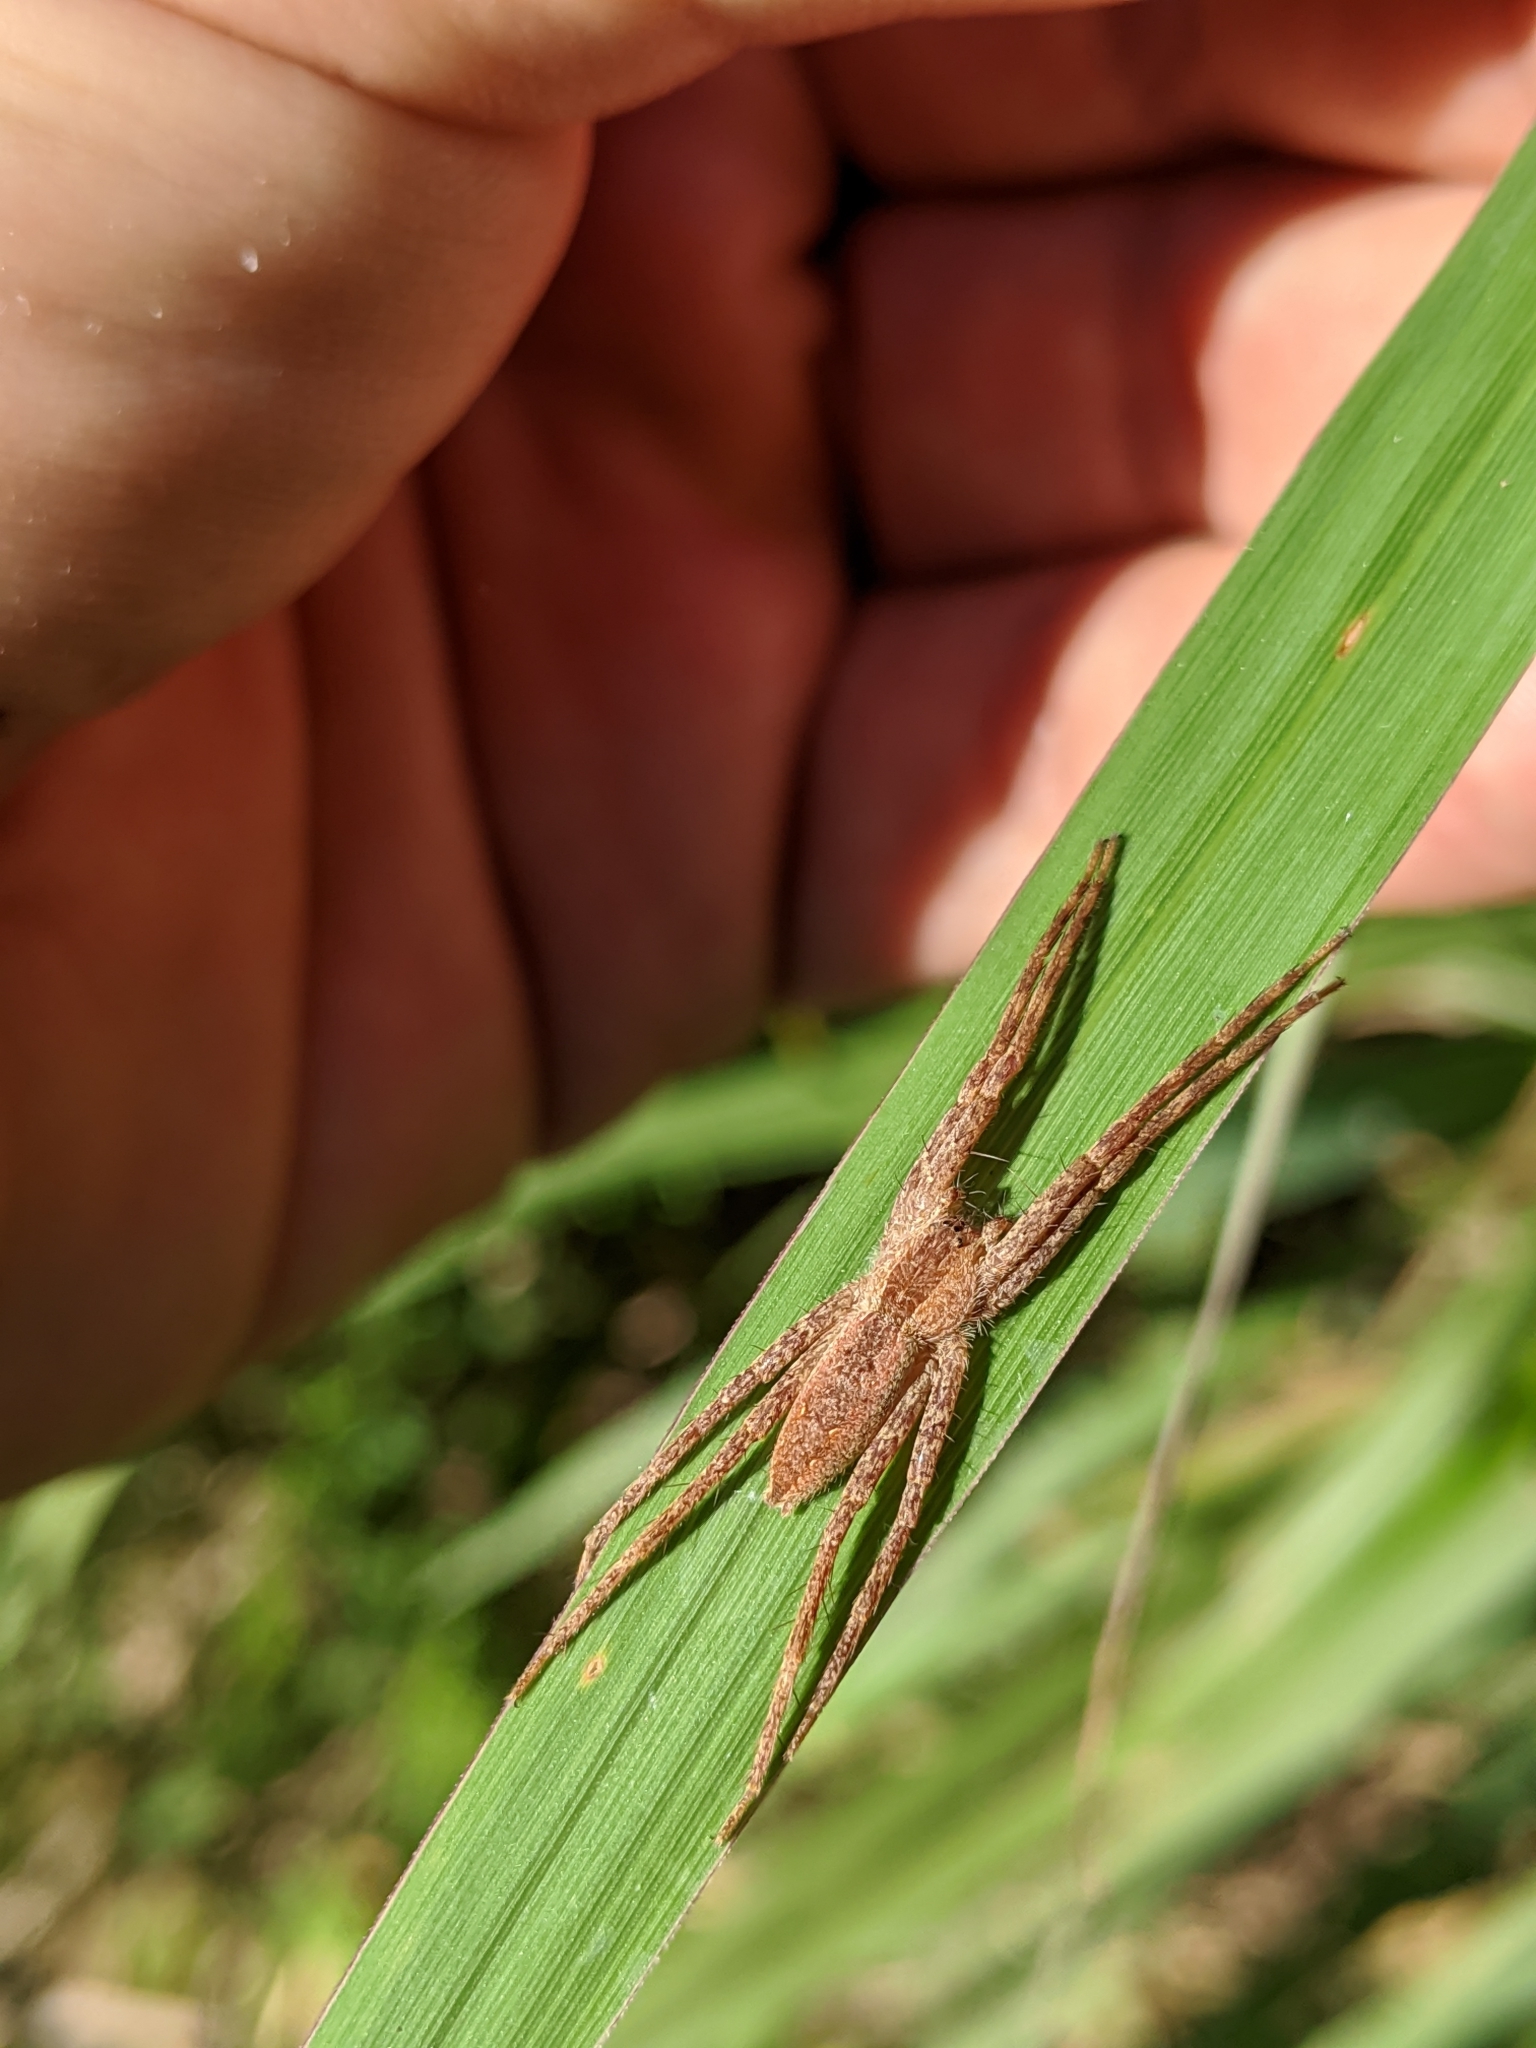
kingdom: Animalia
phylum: Arthropoda
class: Arachnida
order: Araneae
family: Pisauridae
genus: Pisaurina
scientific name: Pisaurina mira
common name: American nursery web spider
